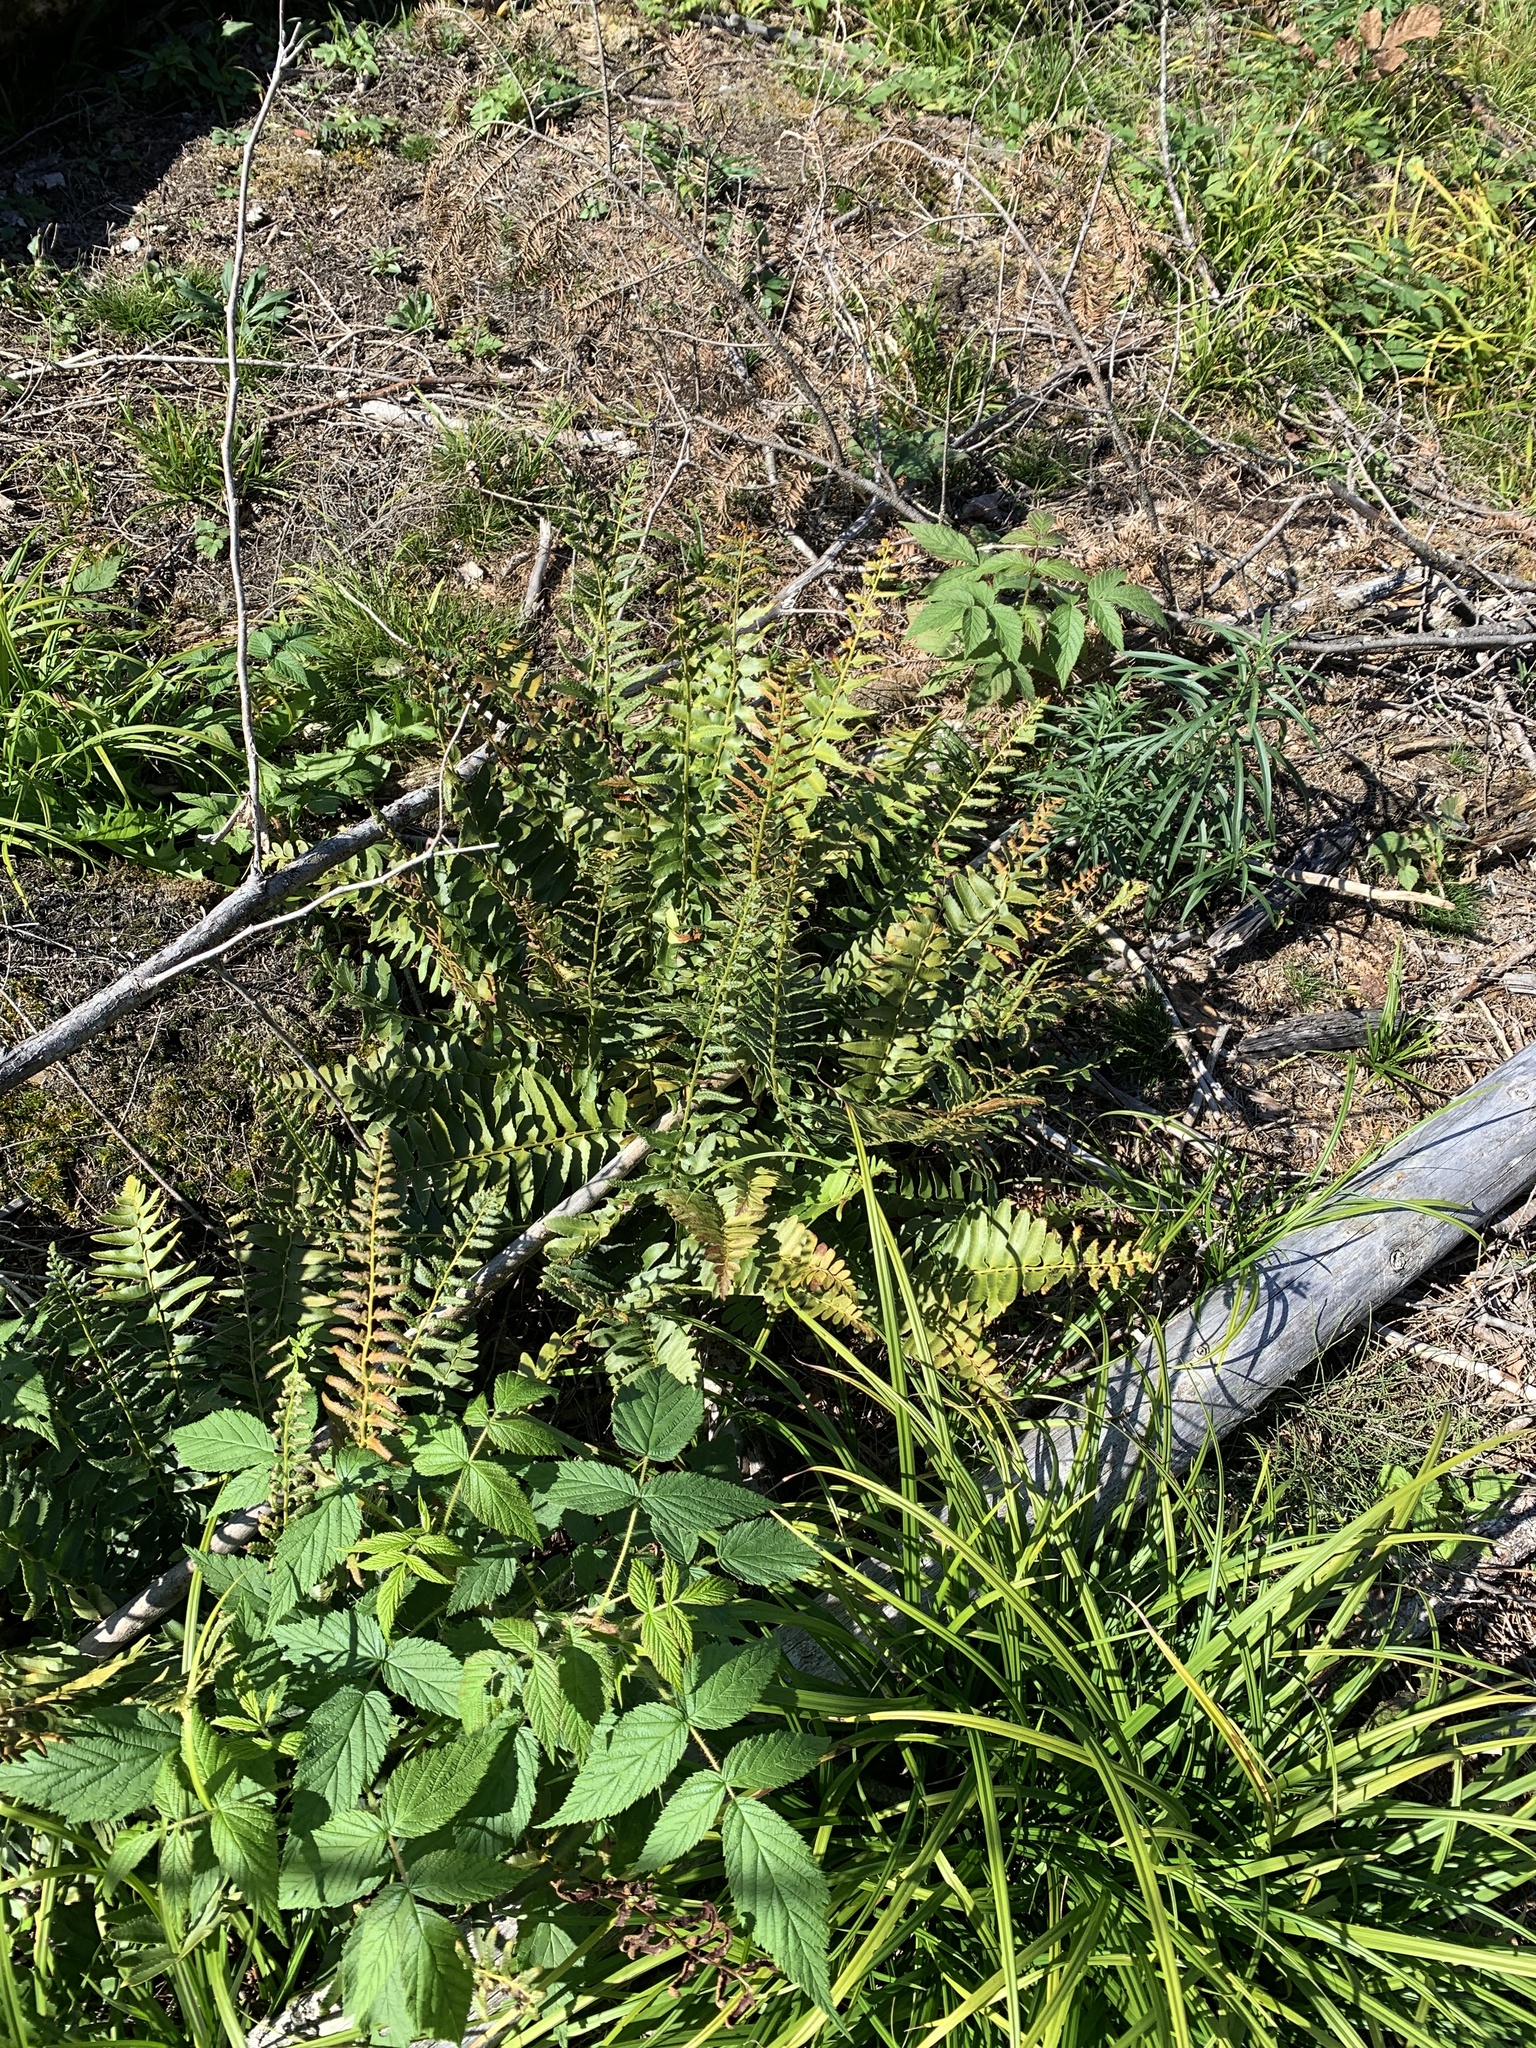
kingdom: Plantae
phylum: Tracheophyta
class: Polypodiopsida
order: Polypodiales
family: Dryopteridaceae
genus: Polystichum
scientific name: Polystichum acrostichoides
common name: Christmas fern
